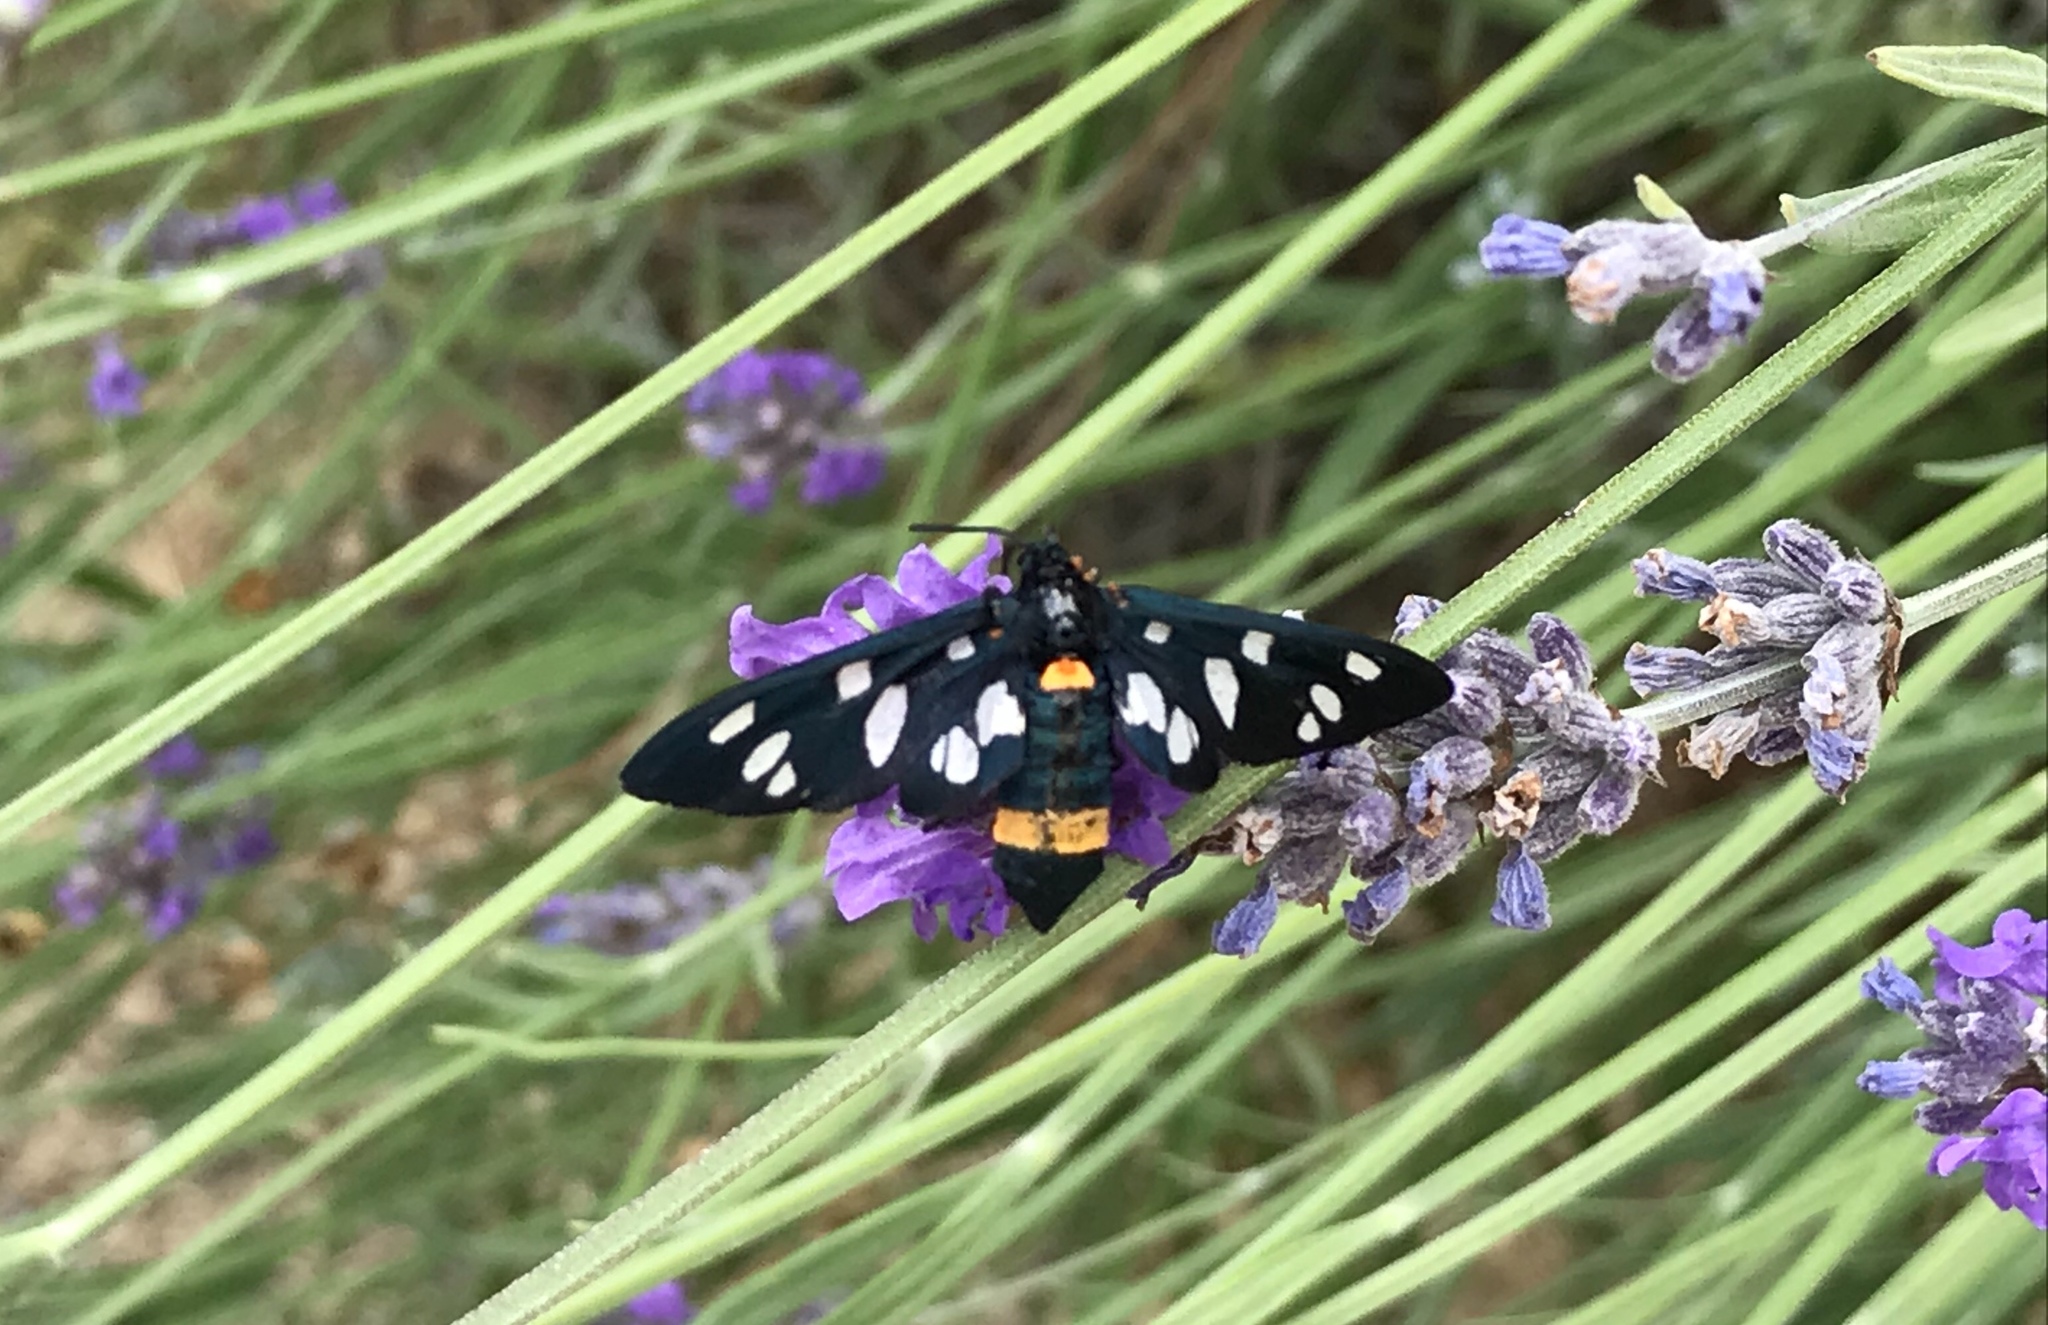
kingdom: Animalia
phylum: Arthropoda
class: Insecta
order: Lepidoptera
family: Erebidae
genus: Amata
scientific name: Amata phegea
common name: Nine-spotted
